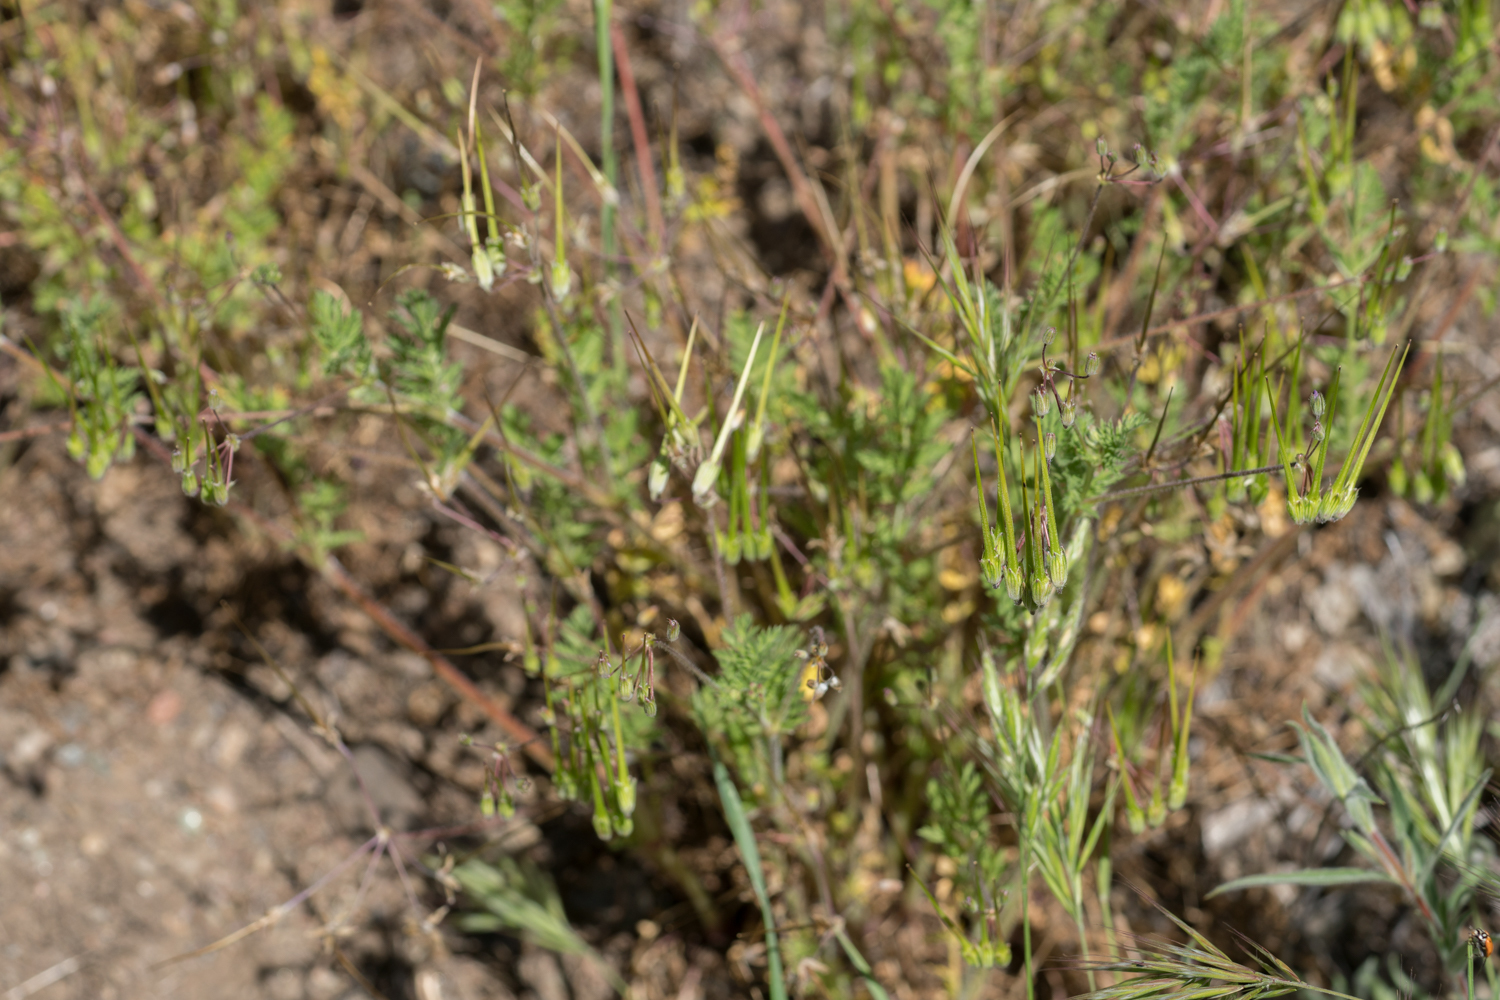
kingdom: Plantae
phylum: Tracheophyta
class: Magnoliopsida
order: Geraniales
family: Geraniaceae
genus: Erodium
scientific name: Erodium cicutarium
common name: Common stork's-bill
